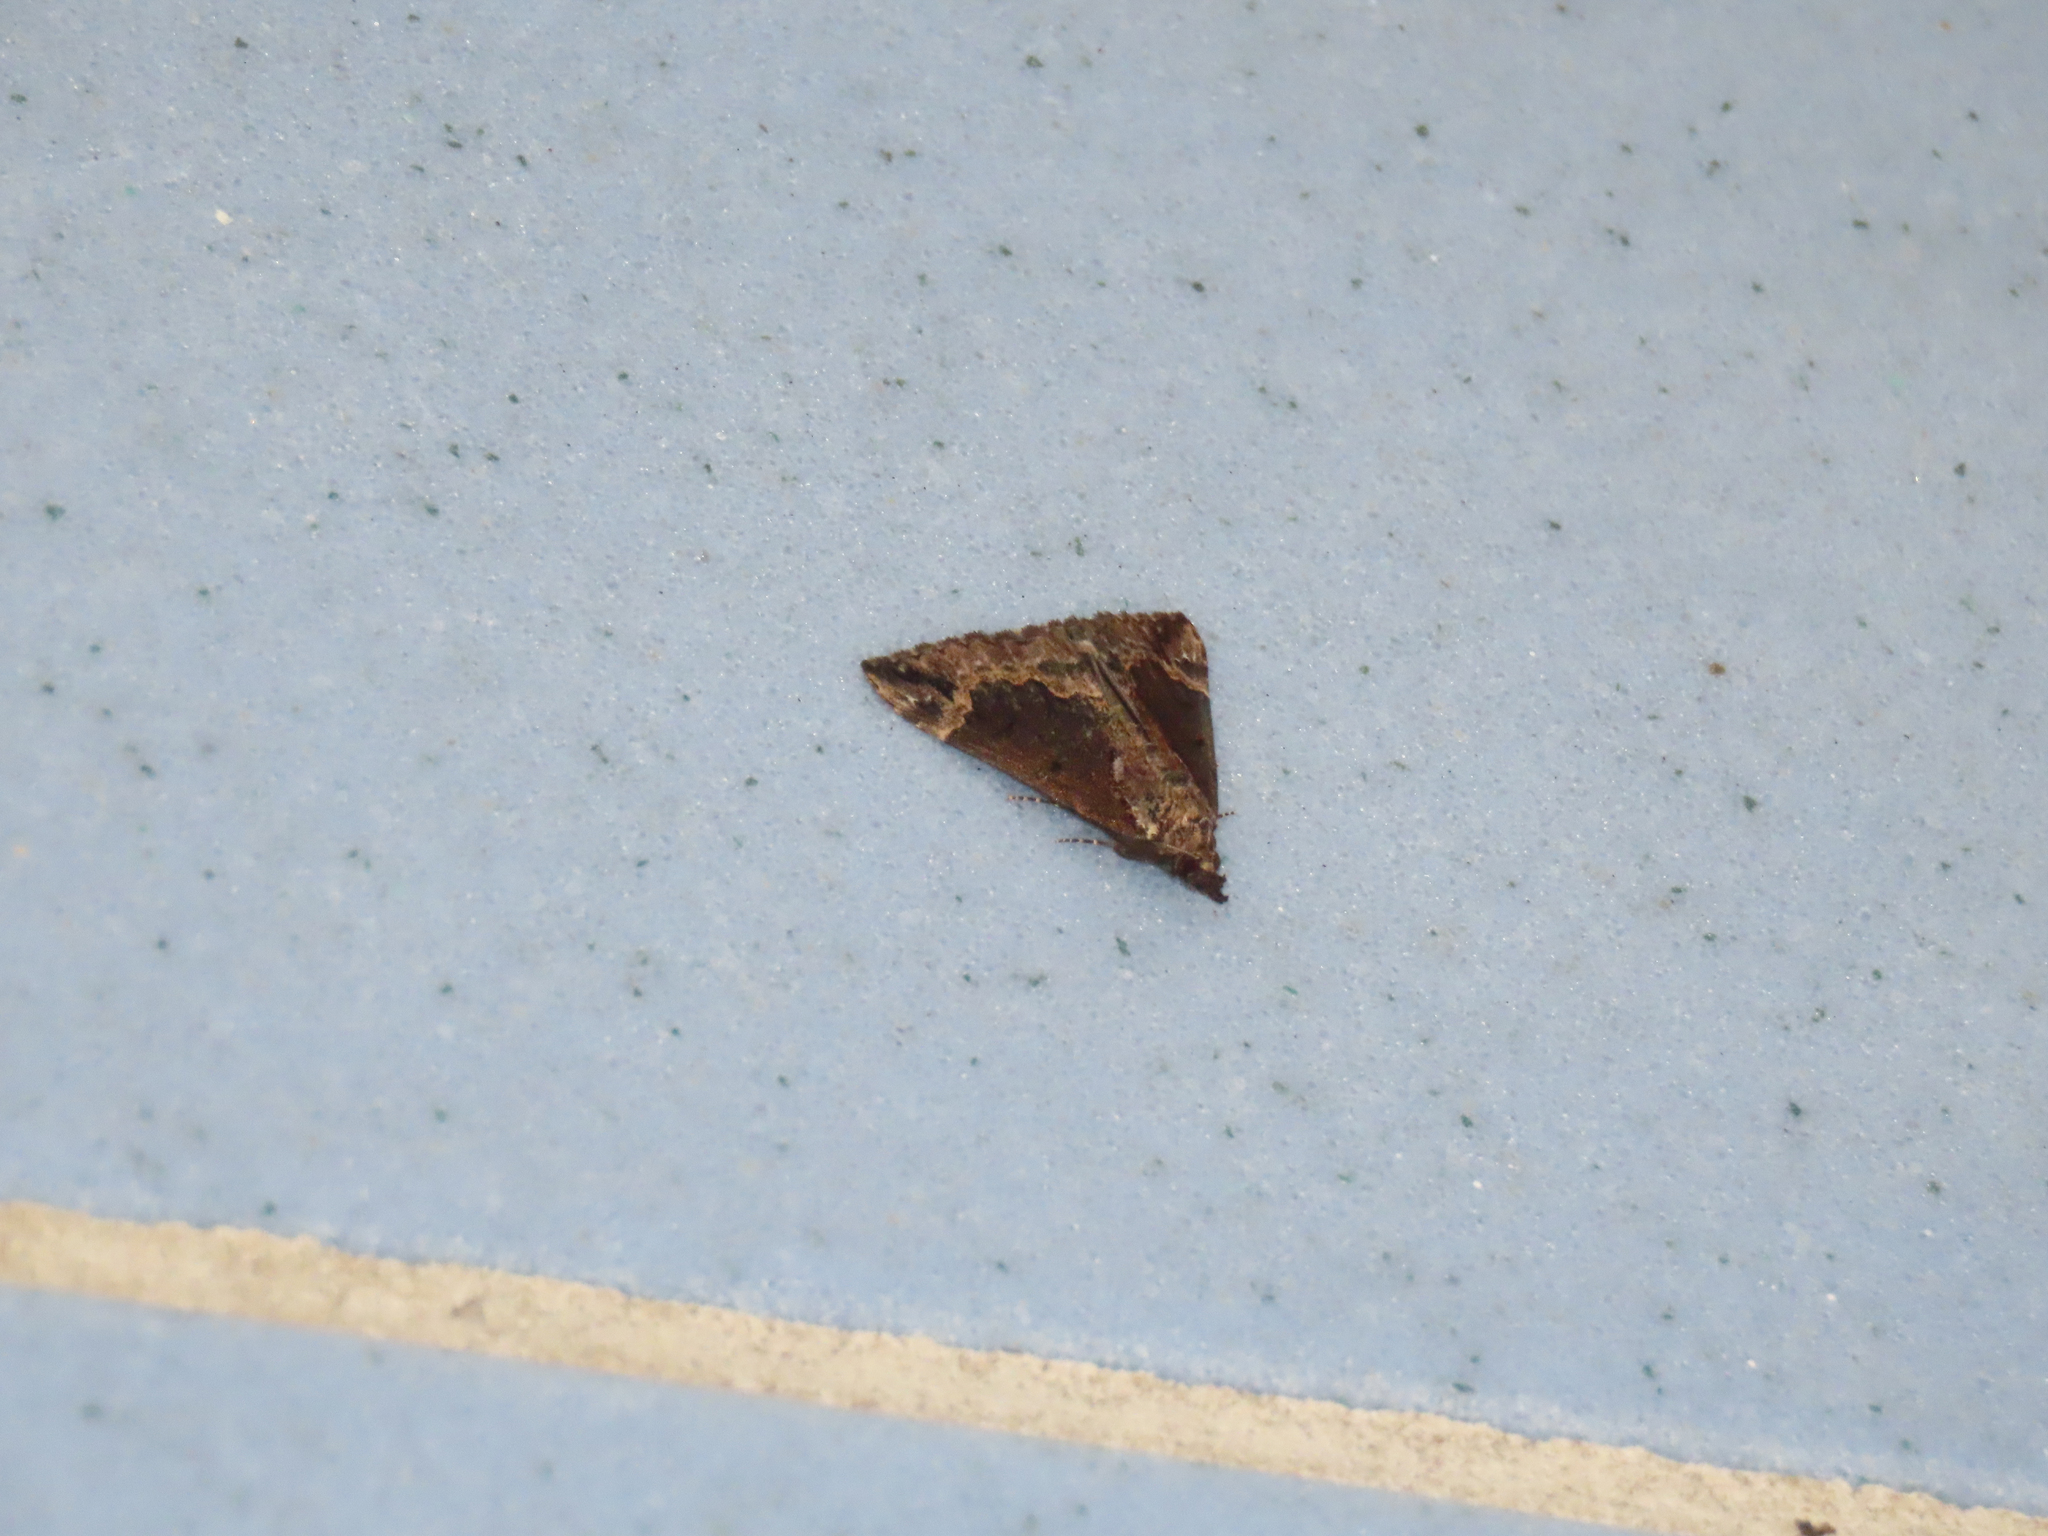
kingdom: Animalia
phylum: Arthropoda
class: Insecta
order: Lepidoptera
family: Erebidae
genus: Hypena
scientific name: Hypena baltimoralis
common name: Baltimore snout
